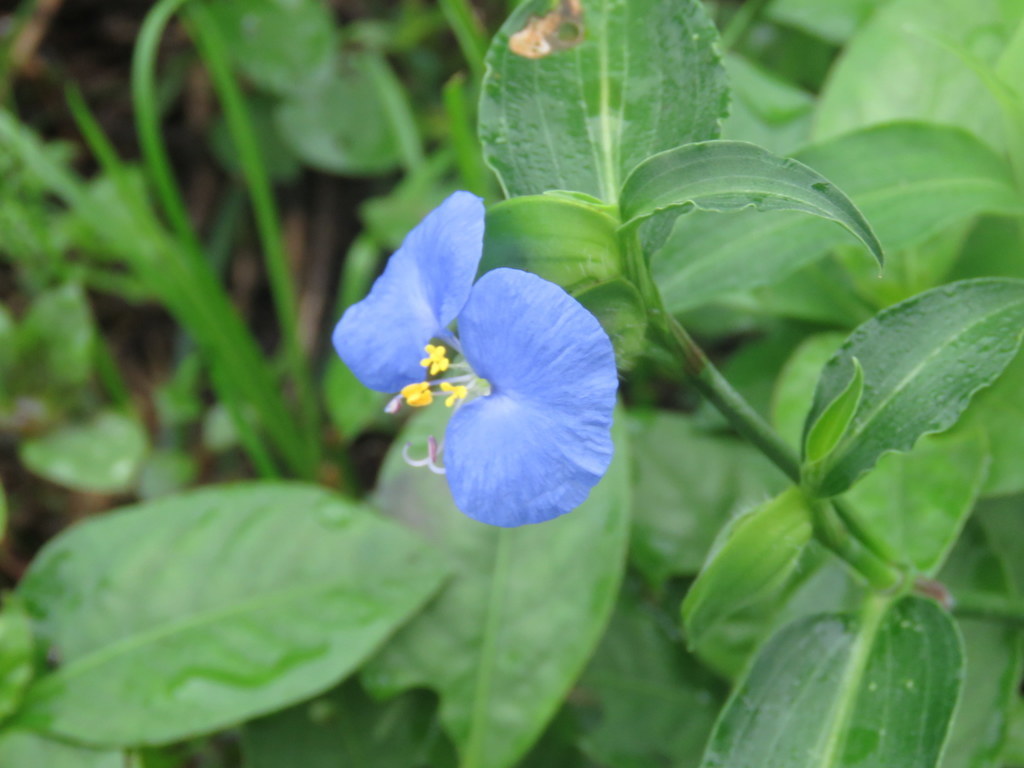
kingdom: Plantae
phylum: Tracheophyta
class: Liliopsida
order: Commelinales
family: Commelinaceae
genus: Commelina
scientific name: Commelina erecta
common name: Blousel blommetjie
